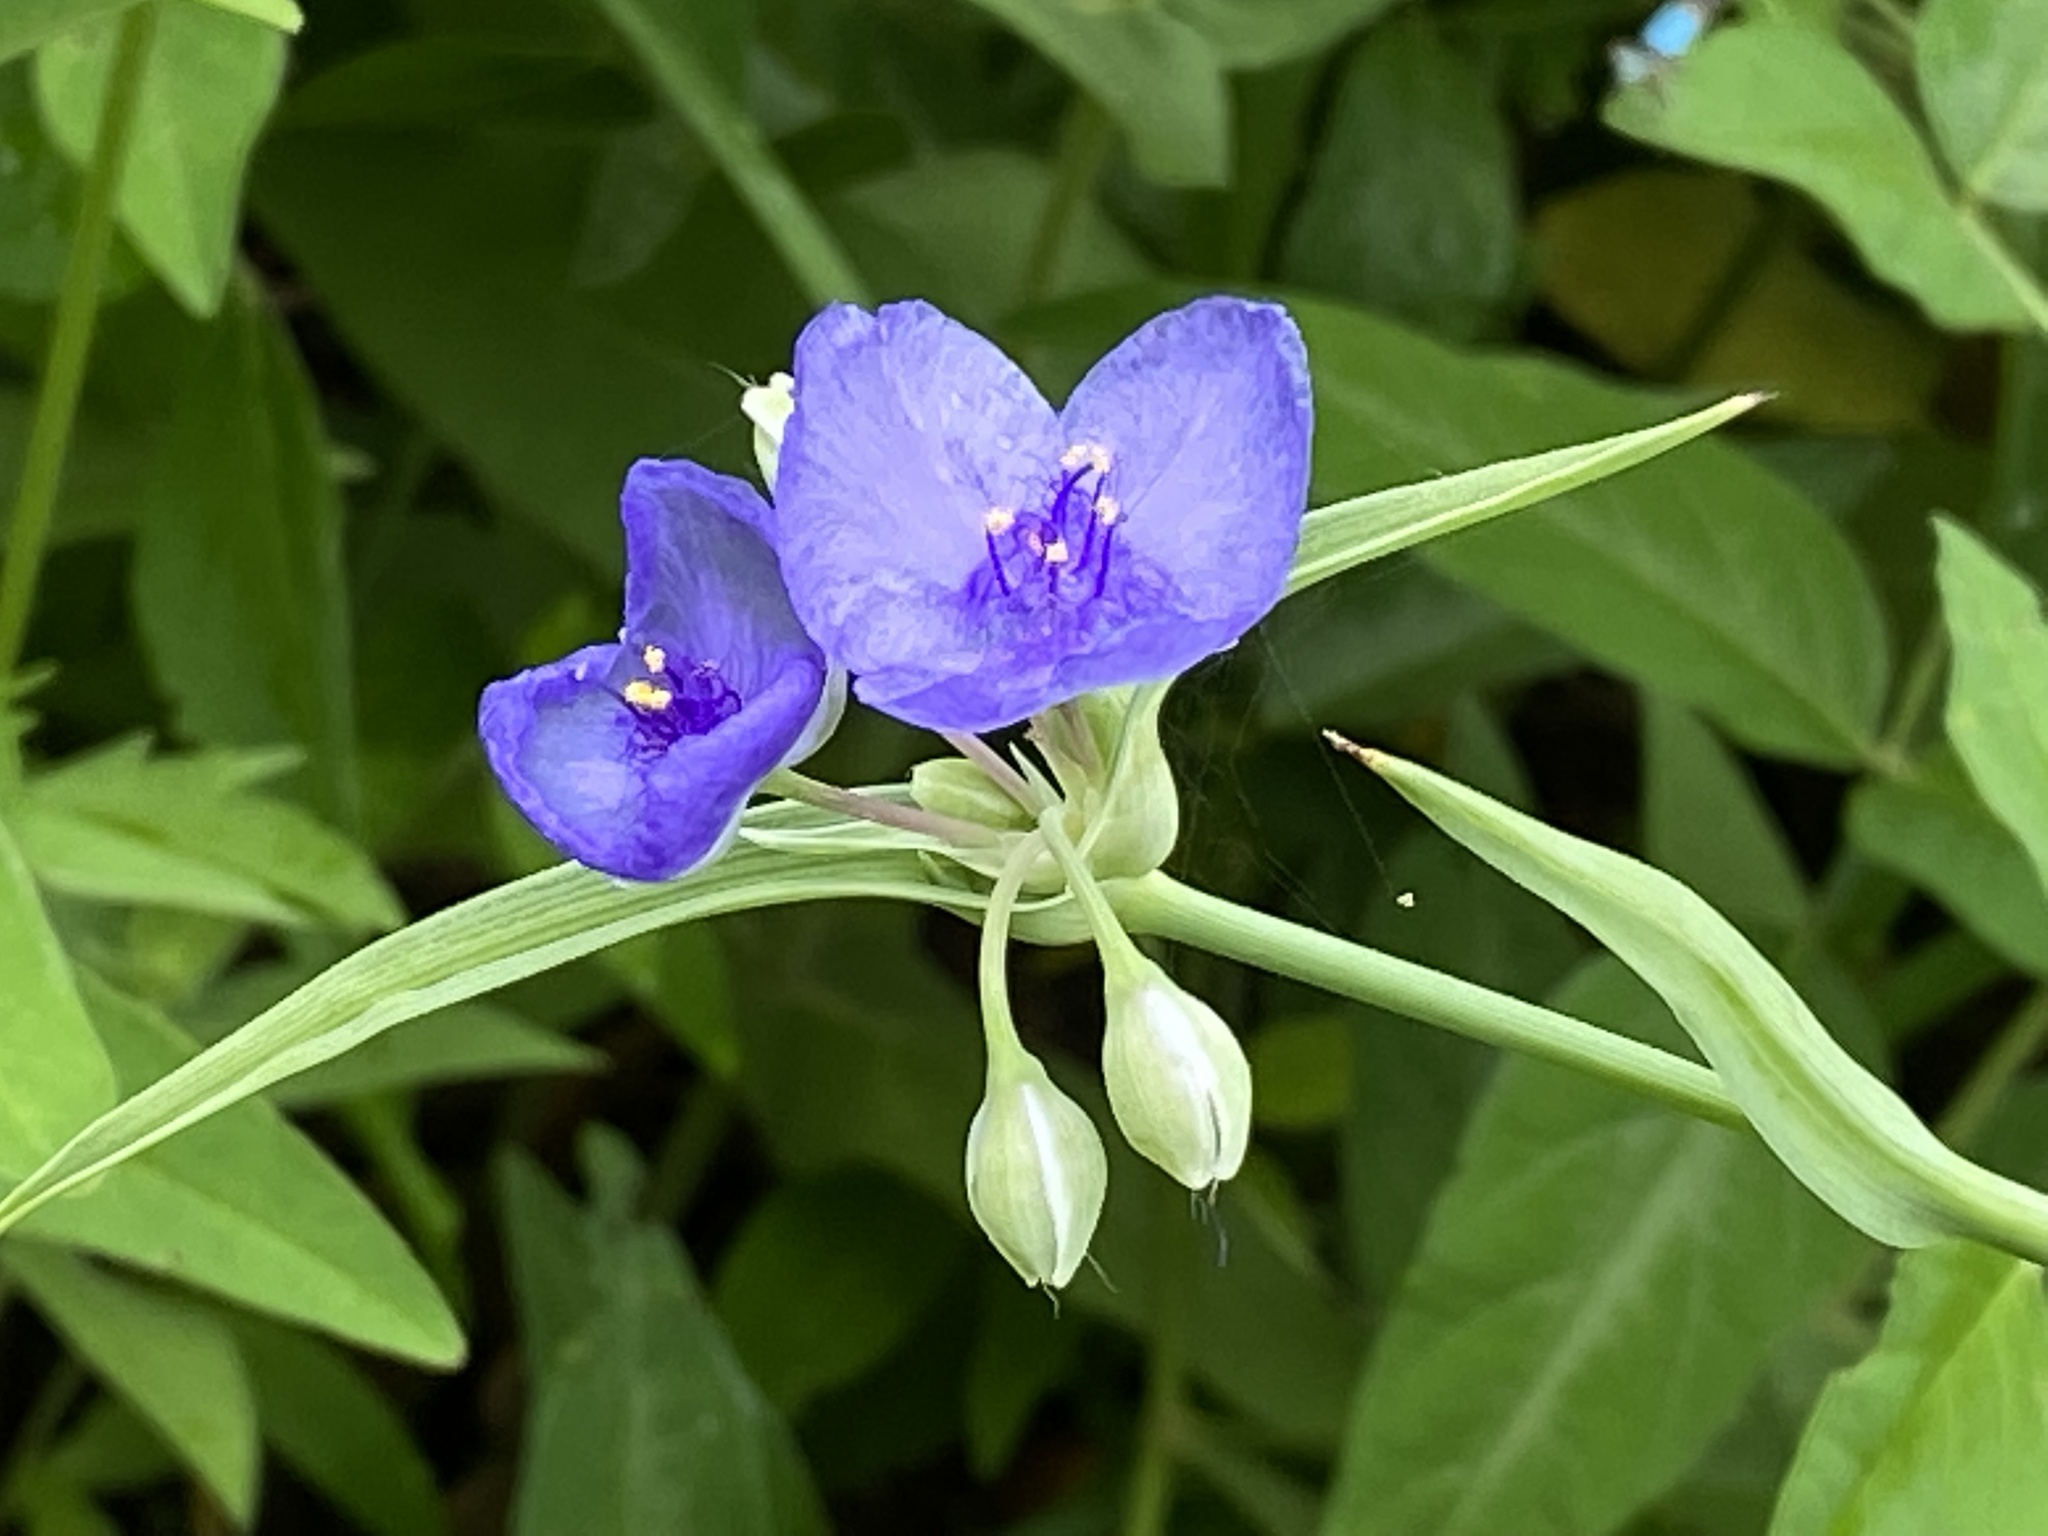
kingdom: Plantae
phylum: Tracheophyta
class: Liliopsida
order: Commelinales
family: Commelinaceae
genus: Tradescantia
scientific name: Tradescantia ohiensis
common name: Ohio spiderwort
